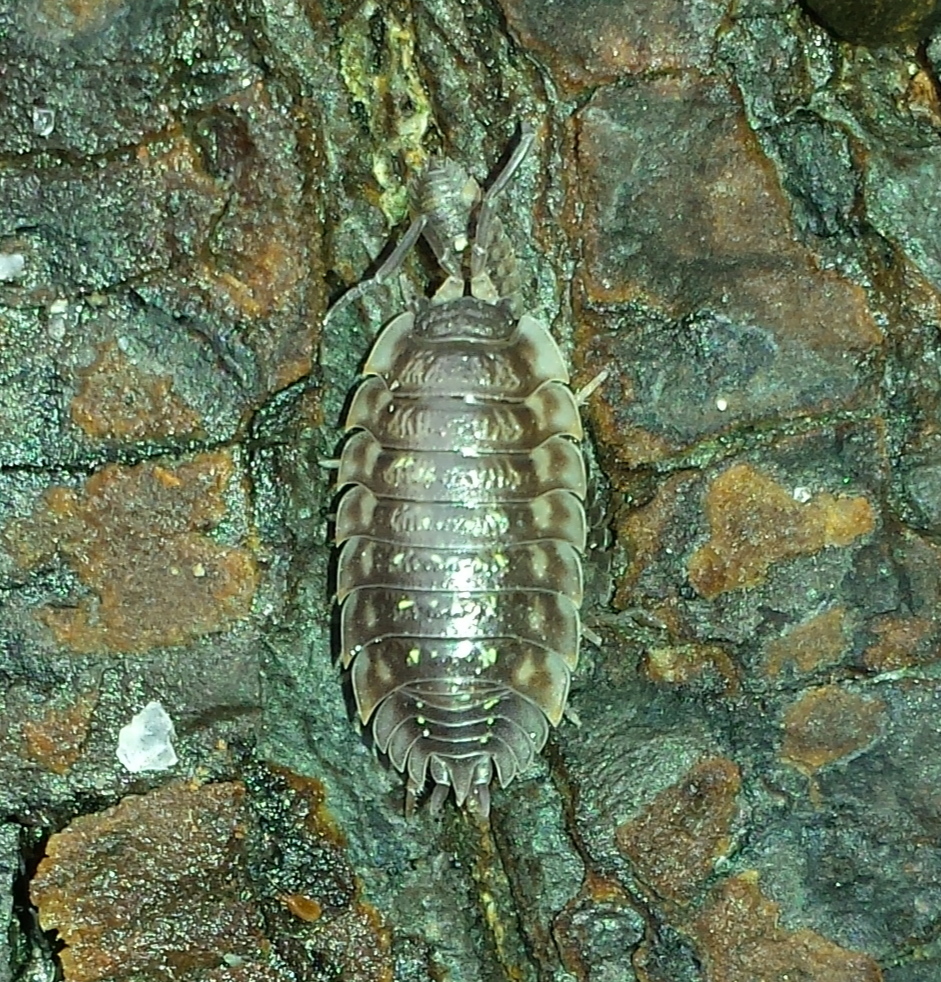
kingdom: Animalia
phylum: Arthropoda
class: Malacostraca
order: Isopoda
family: Oniscidae
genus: Oniscus
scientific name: Oniscus asellus
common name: Common shiny woodlouse
